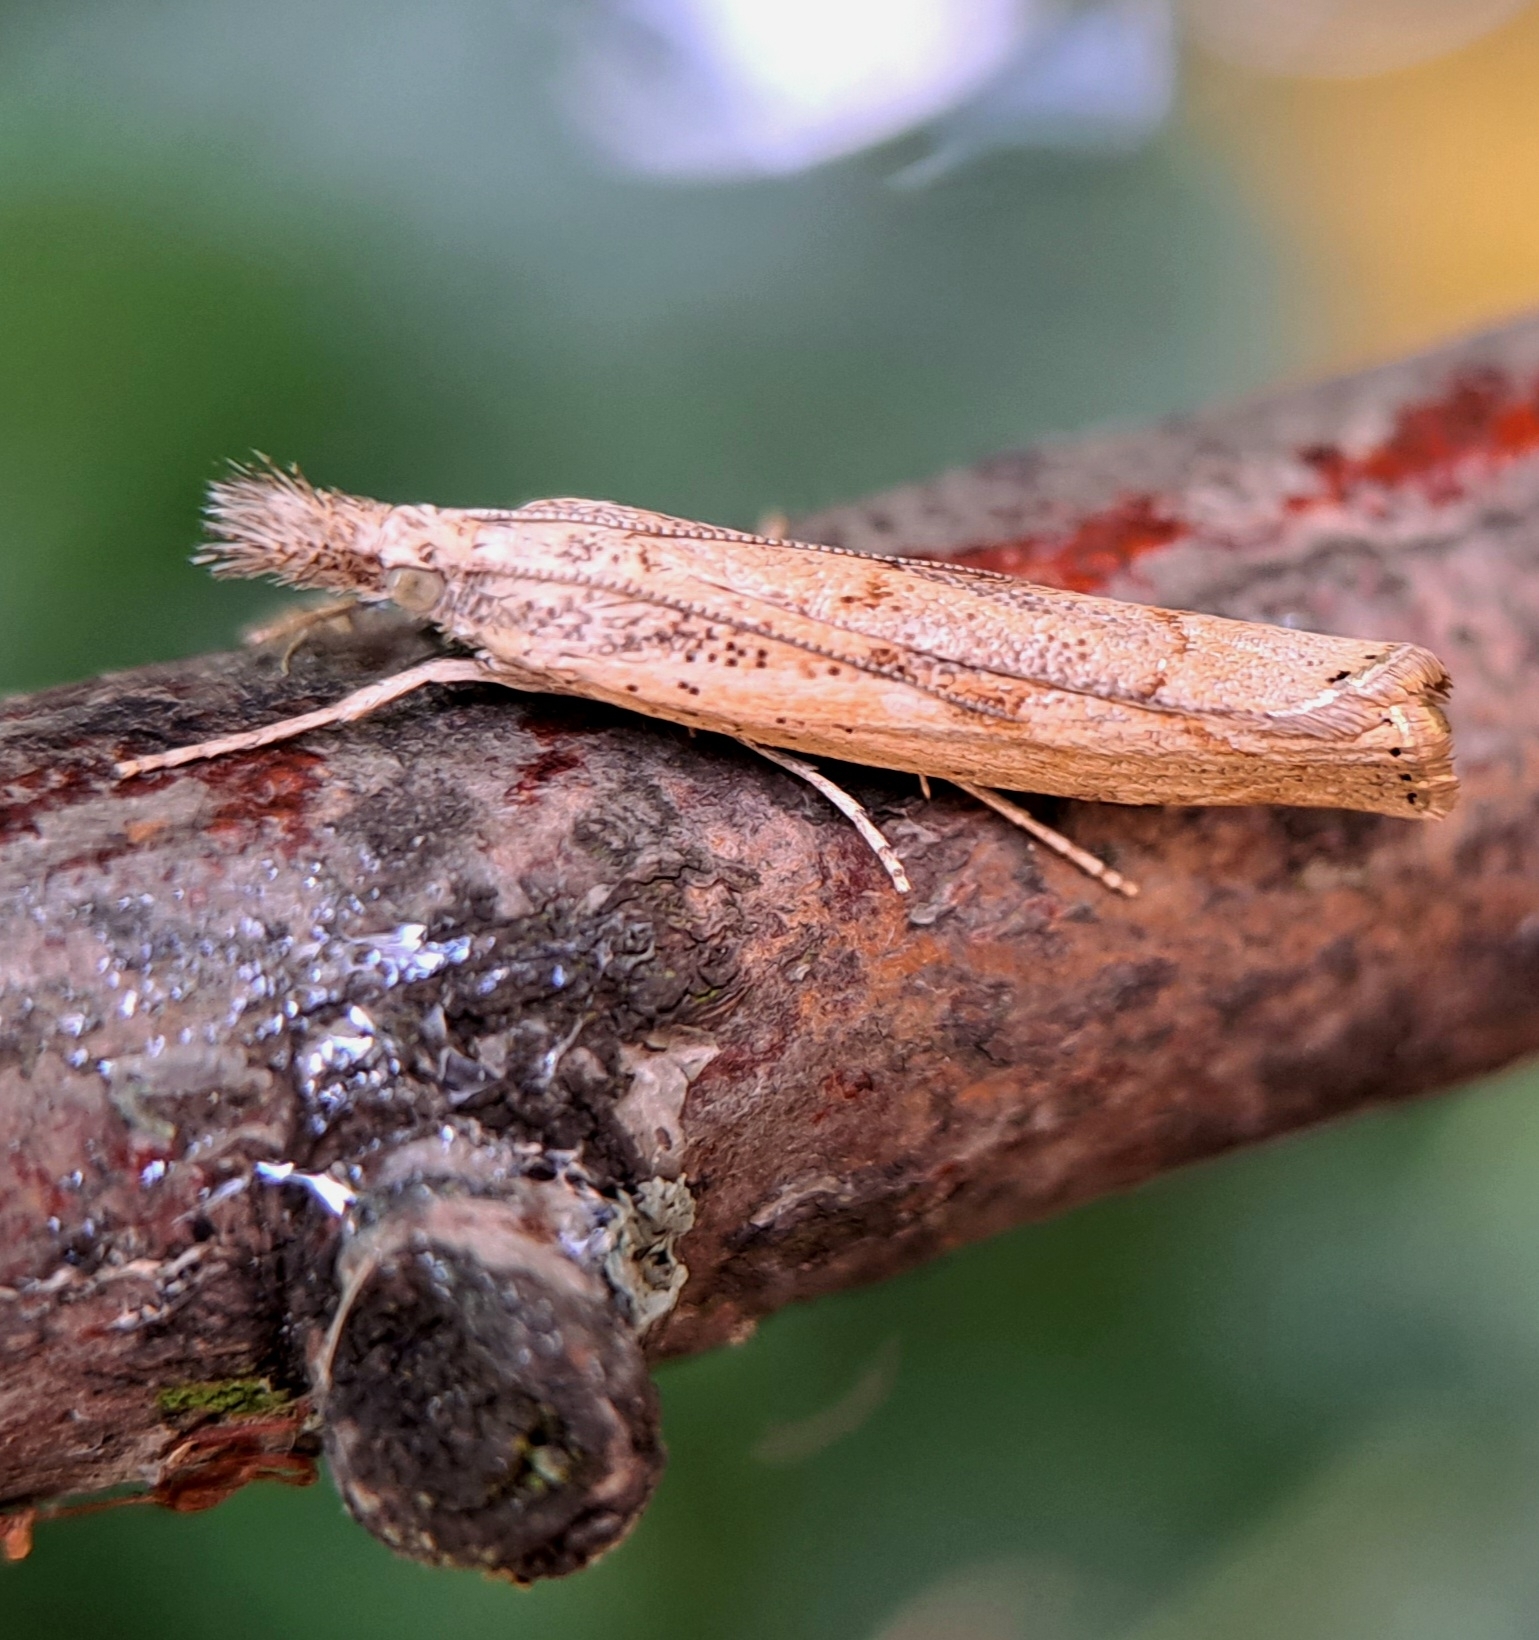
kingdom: Animalia
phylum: Arthropoda
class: Insecta
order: Lepidoptera
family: Crambidae
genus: Agriphila
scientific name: Agriphila geniculea
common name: Elbow-stripe grass-veneer
